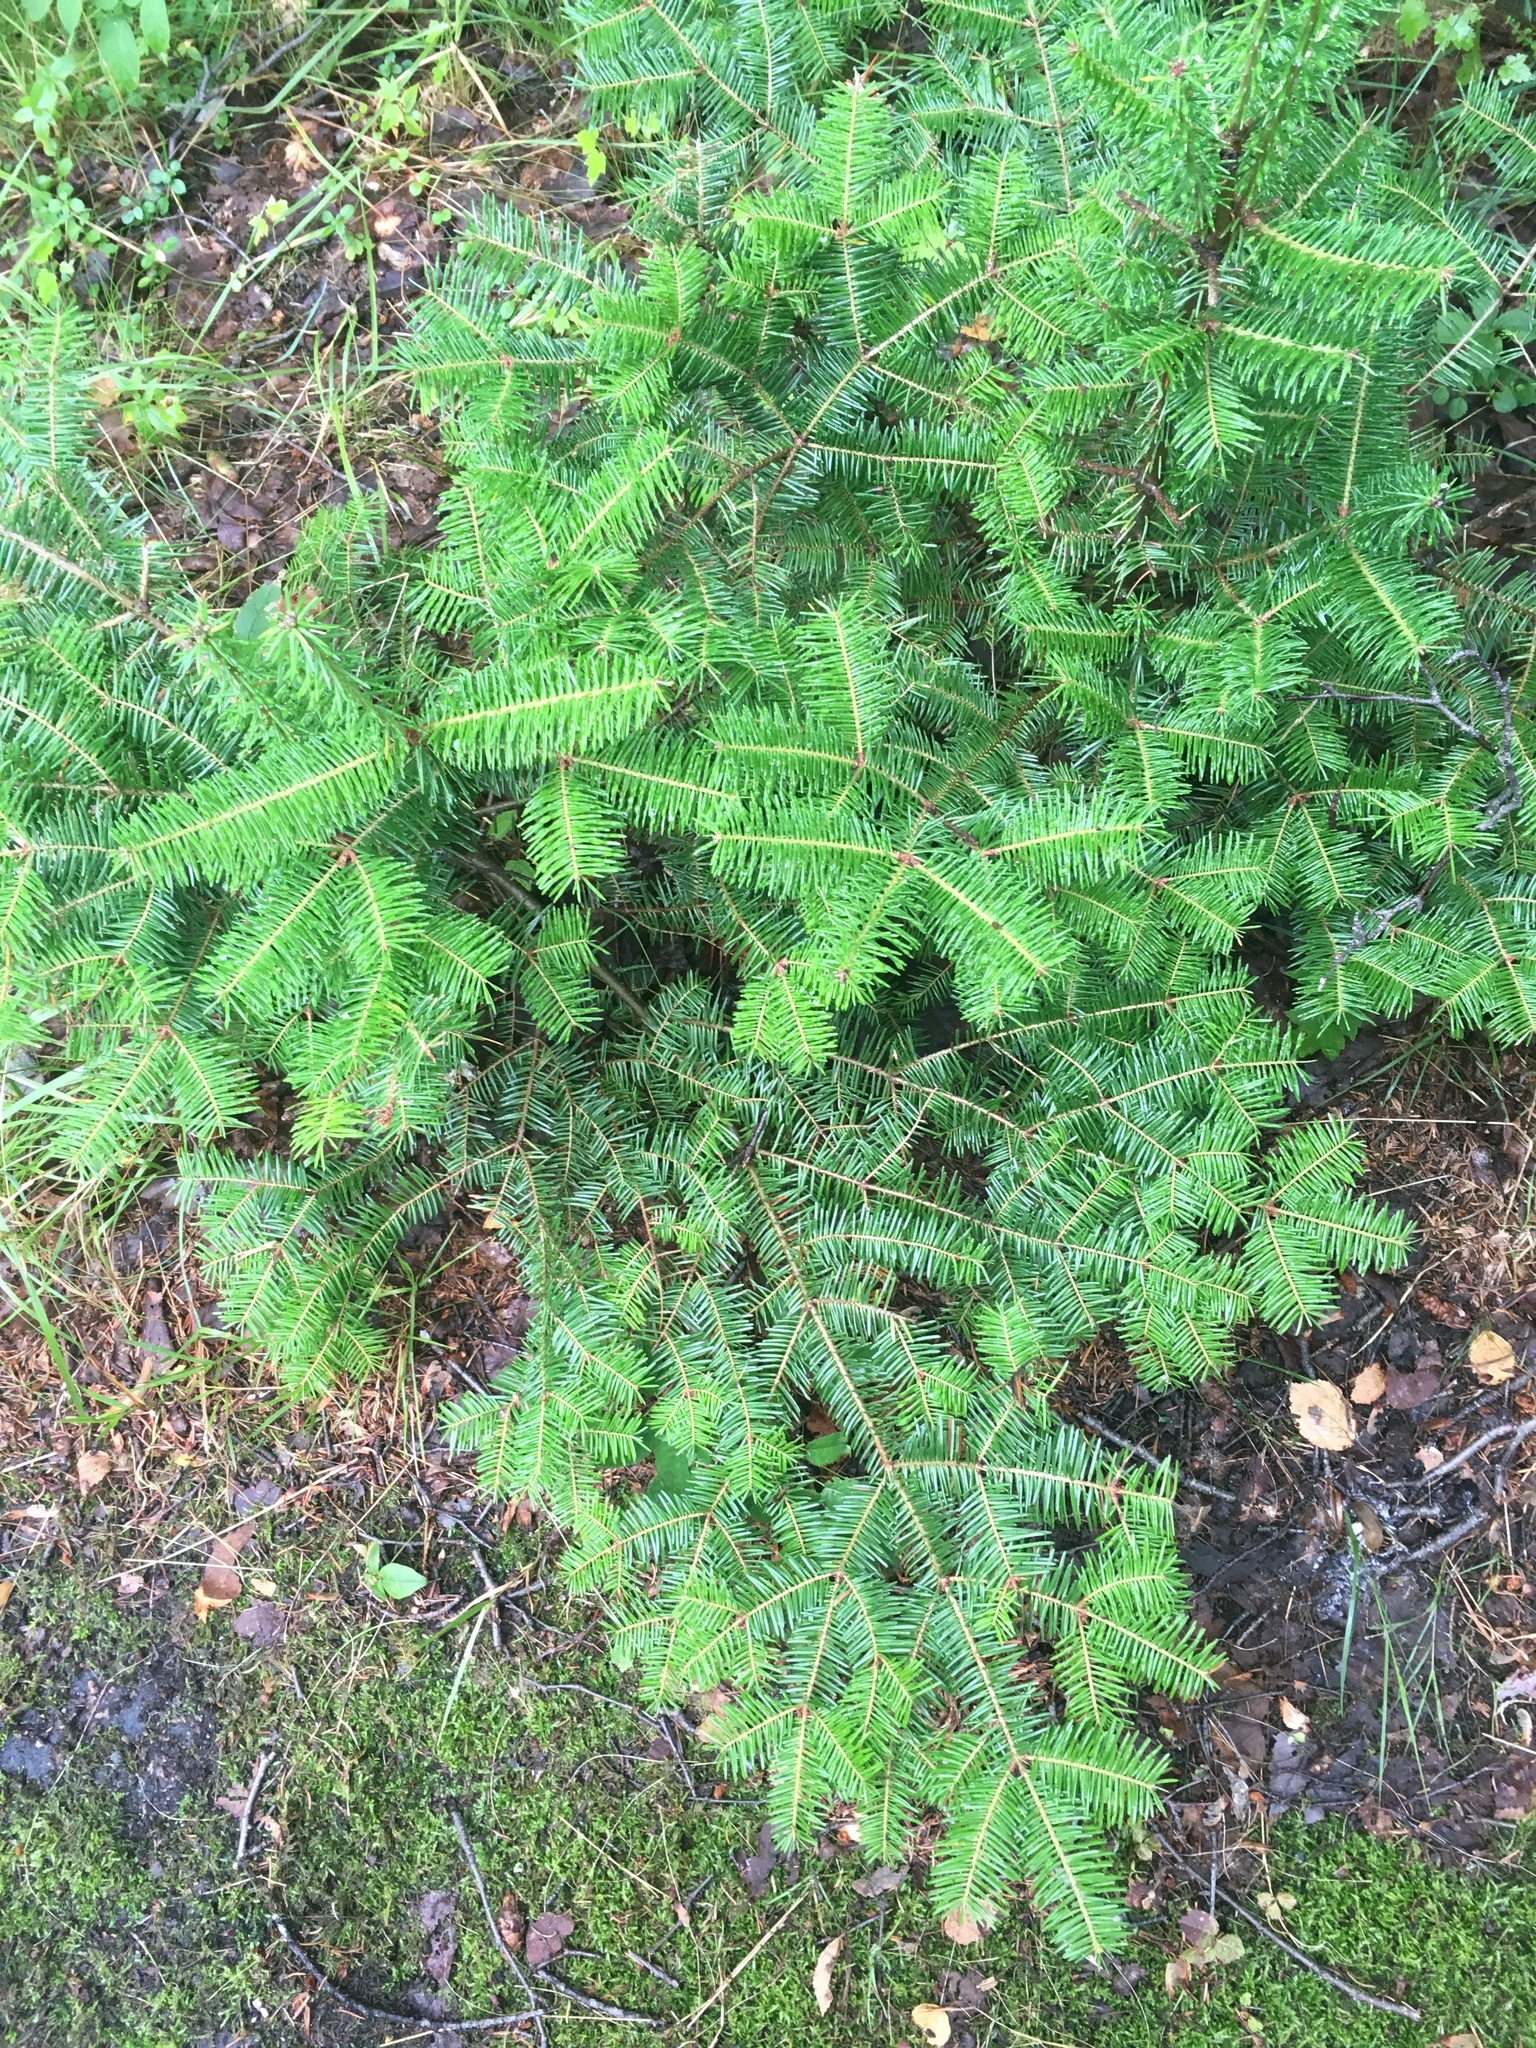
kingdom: Plantae
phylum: Tracheophyta
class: Pinopsida
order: Pinales
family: Pinaceae
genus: Abies
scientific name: Abies balsamea
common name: Balsam fir
